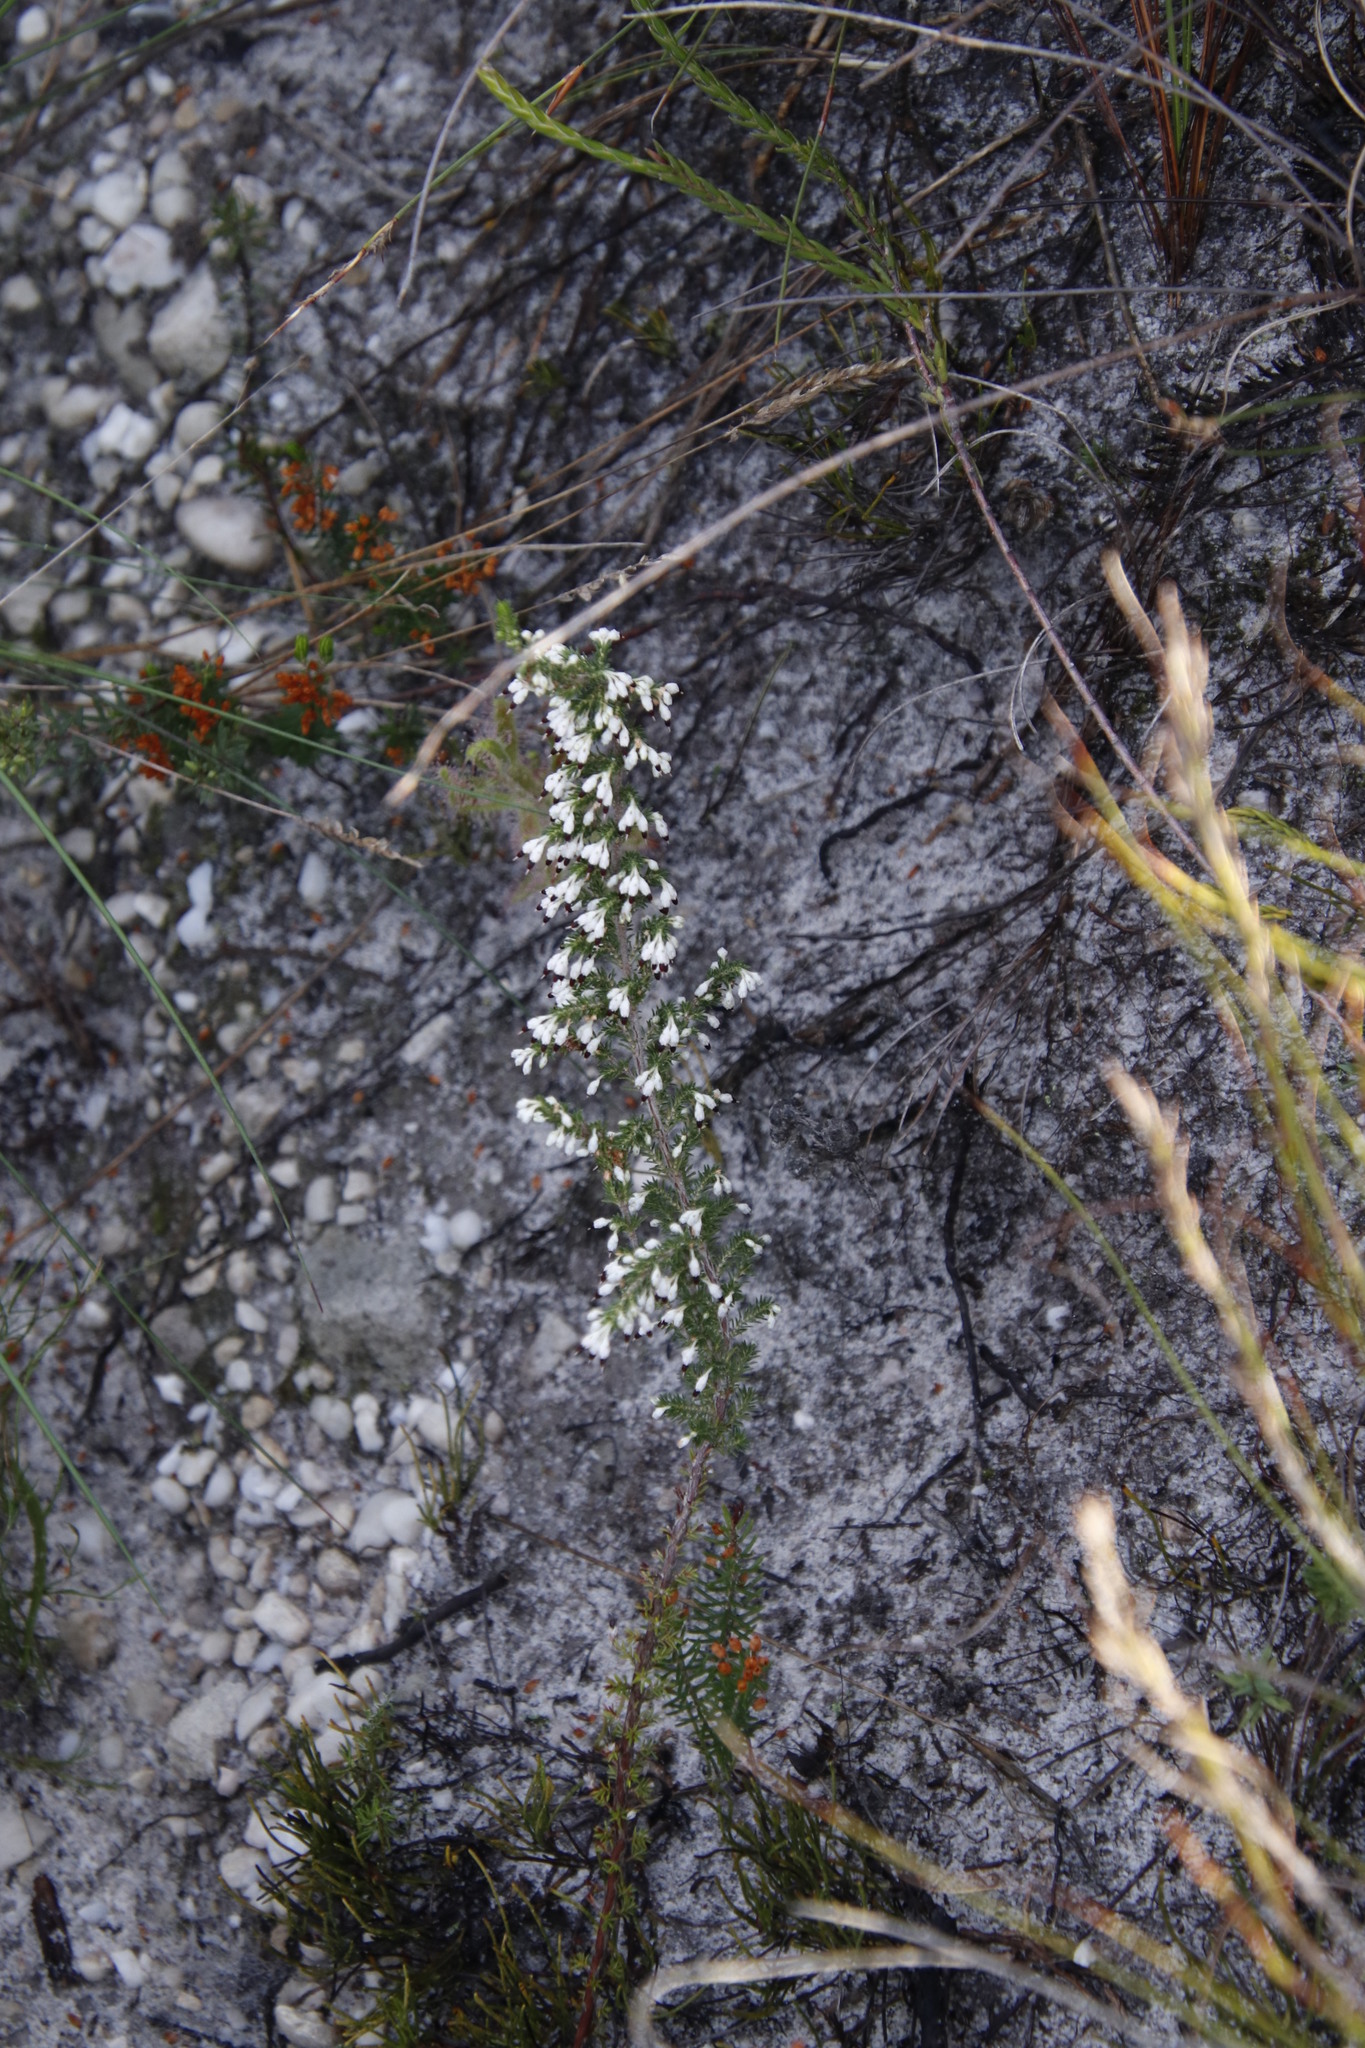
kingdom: Plantae
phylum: Tracheophyta
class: Magnoliopsida
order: Ericales
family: Ericaceae
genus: Erica
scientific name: Erica imbricata
